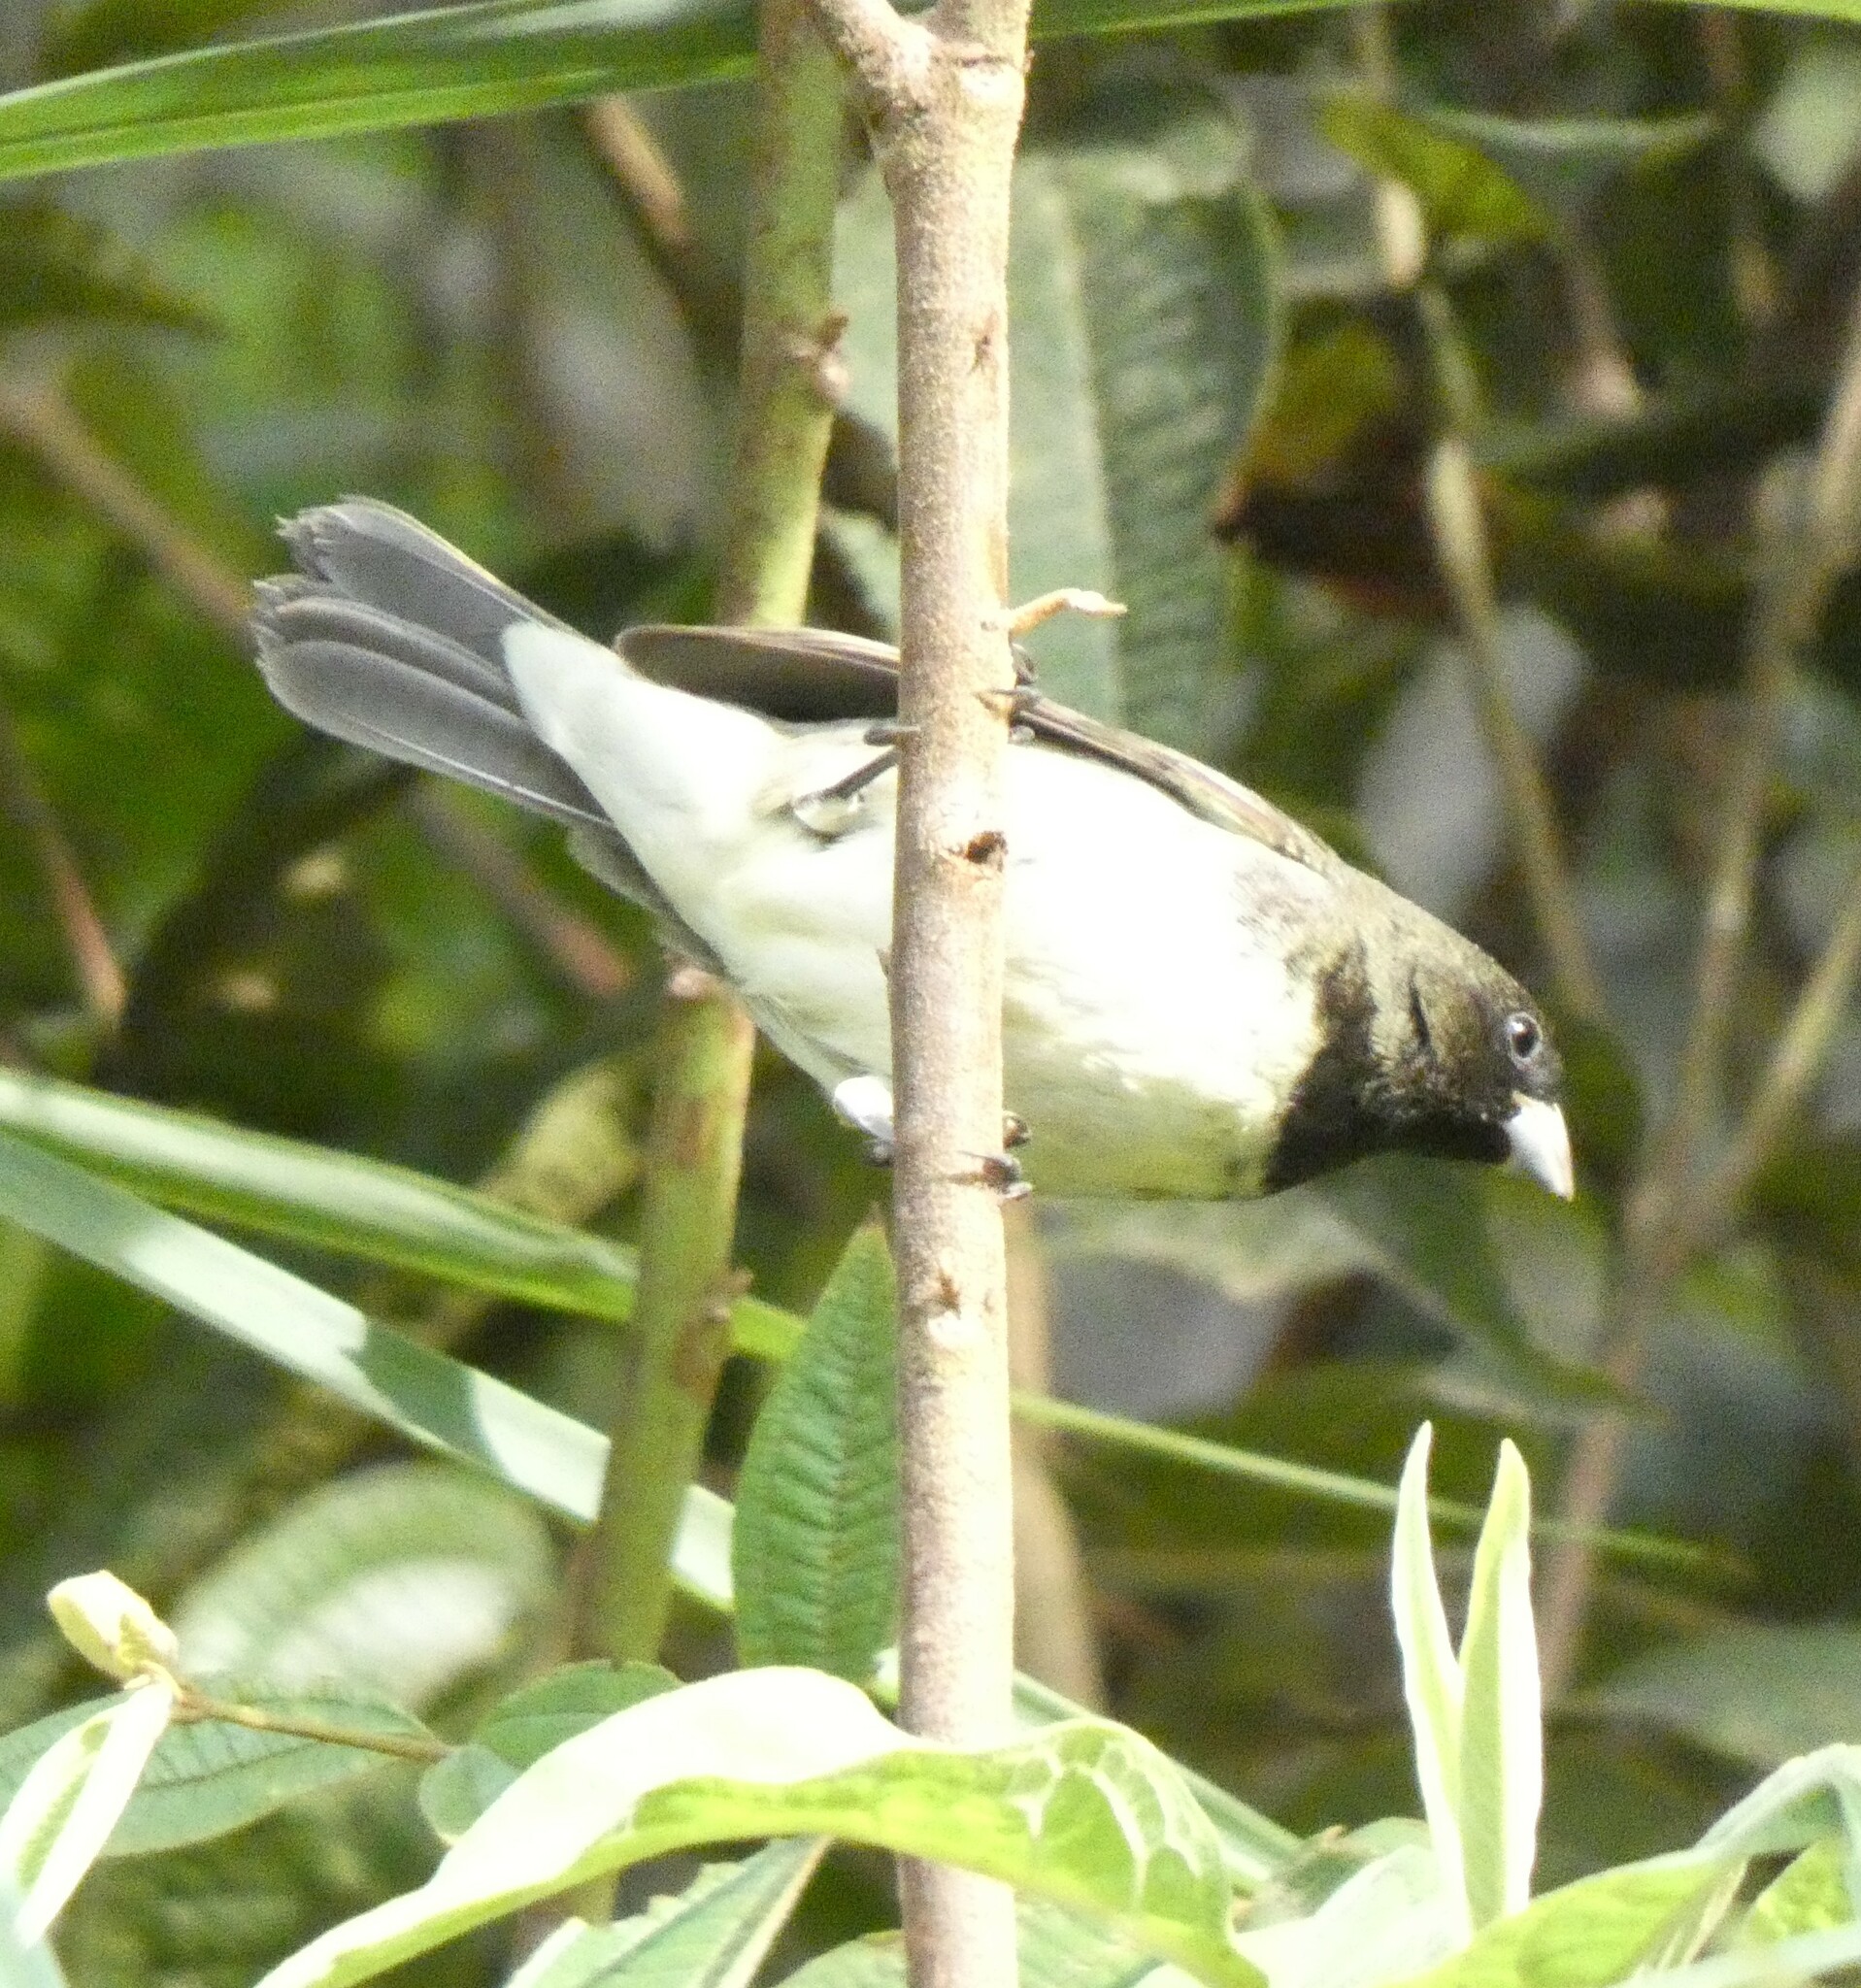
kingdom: Animalia
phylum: Chordata
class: Aves
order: Passeriformes
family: Thraupidae
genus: Sporophila
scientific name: Sporophila nigricollis
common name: Yellow-bellied seedeater
